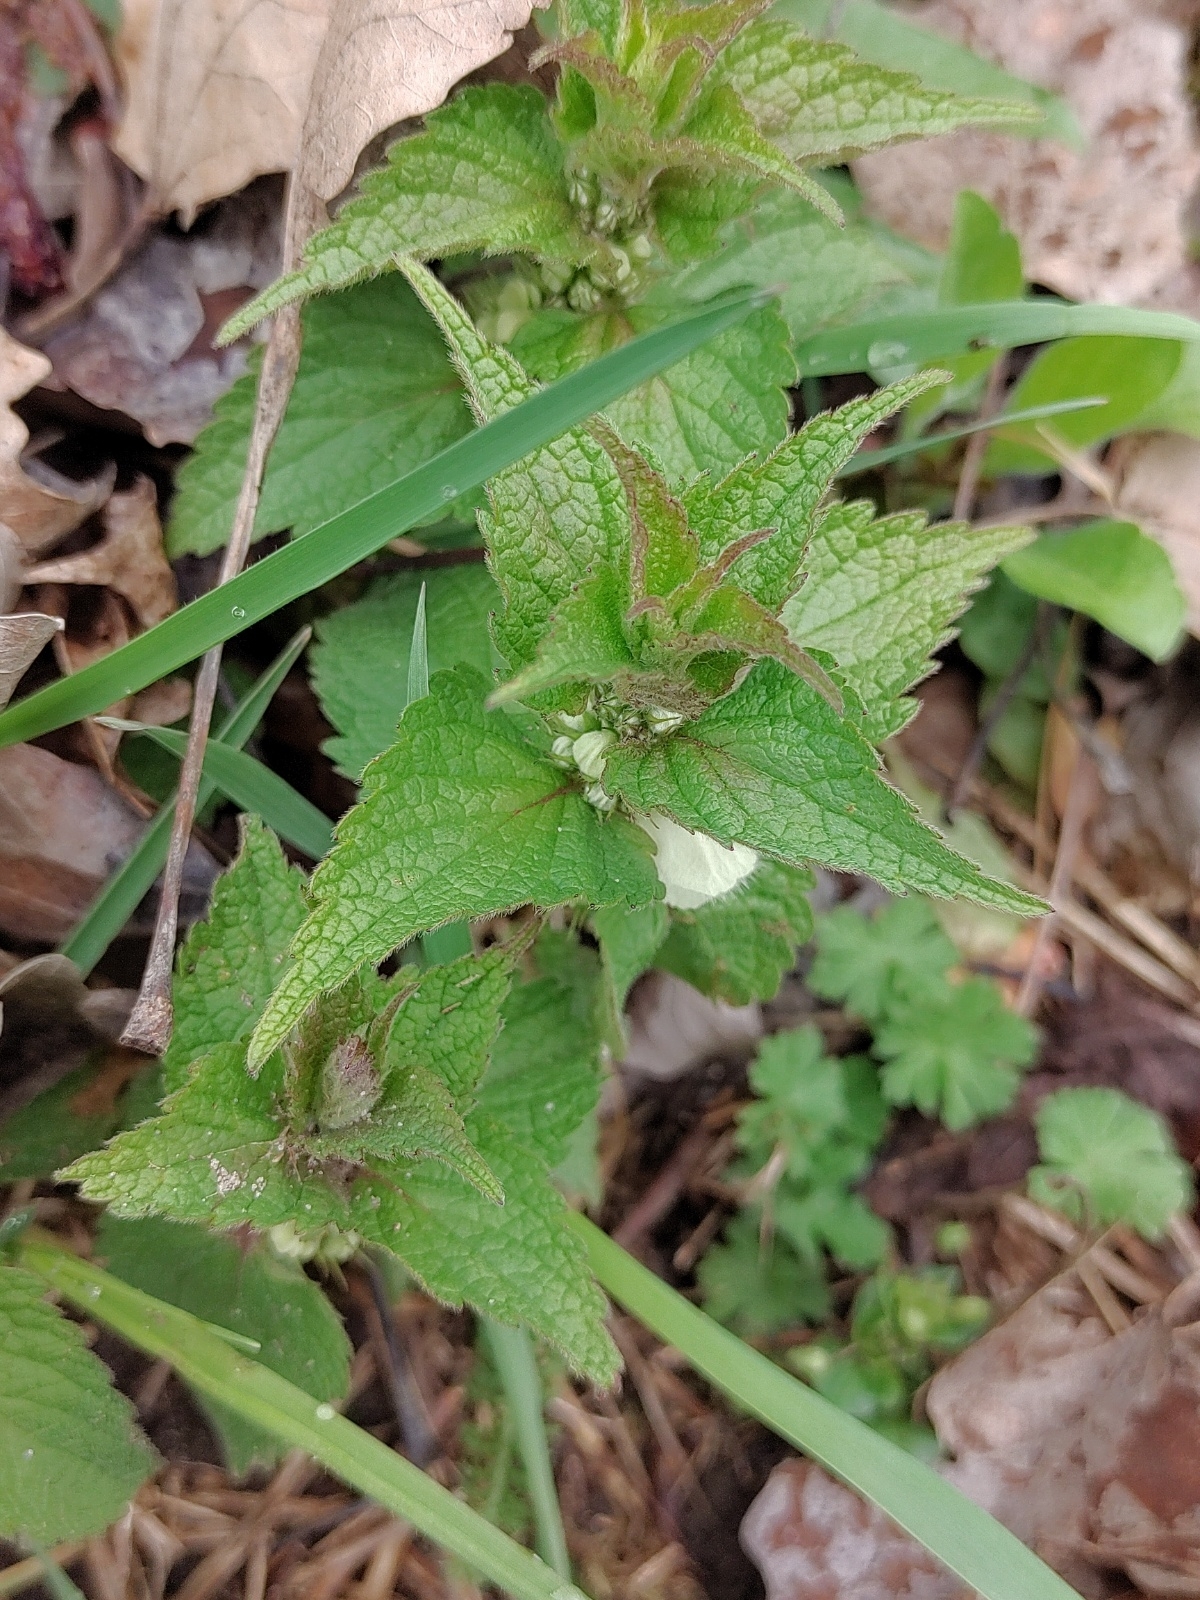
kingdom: Plantae
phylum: Tracheophyta
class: Magnoliopsida
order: Lamiales
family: Lamiaceae
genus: Lamium
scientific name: Lamium album
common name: White dead-nettle
